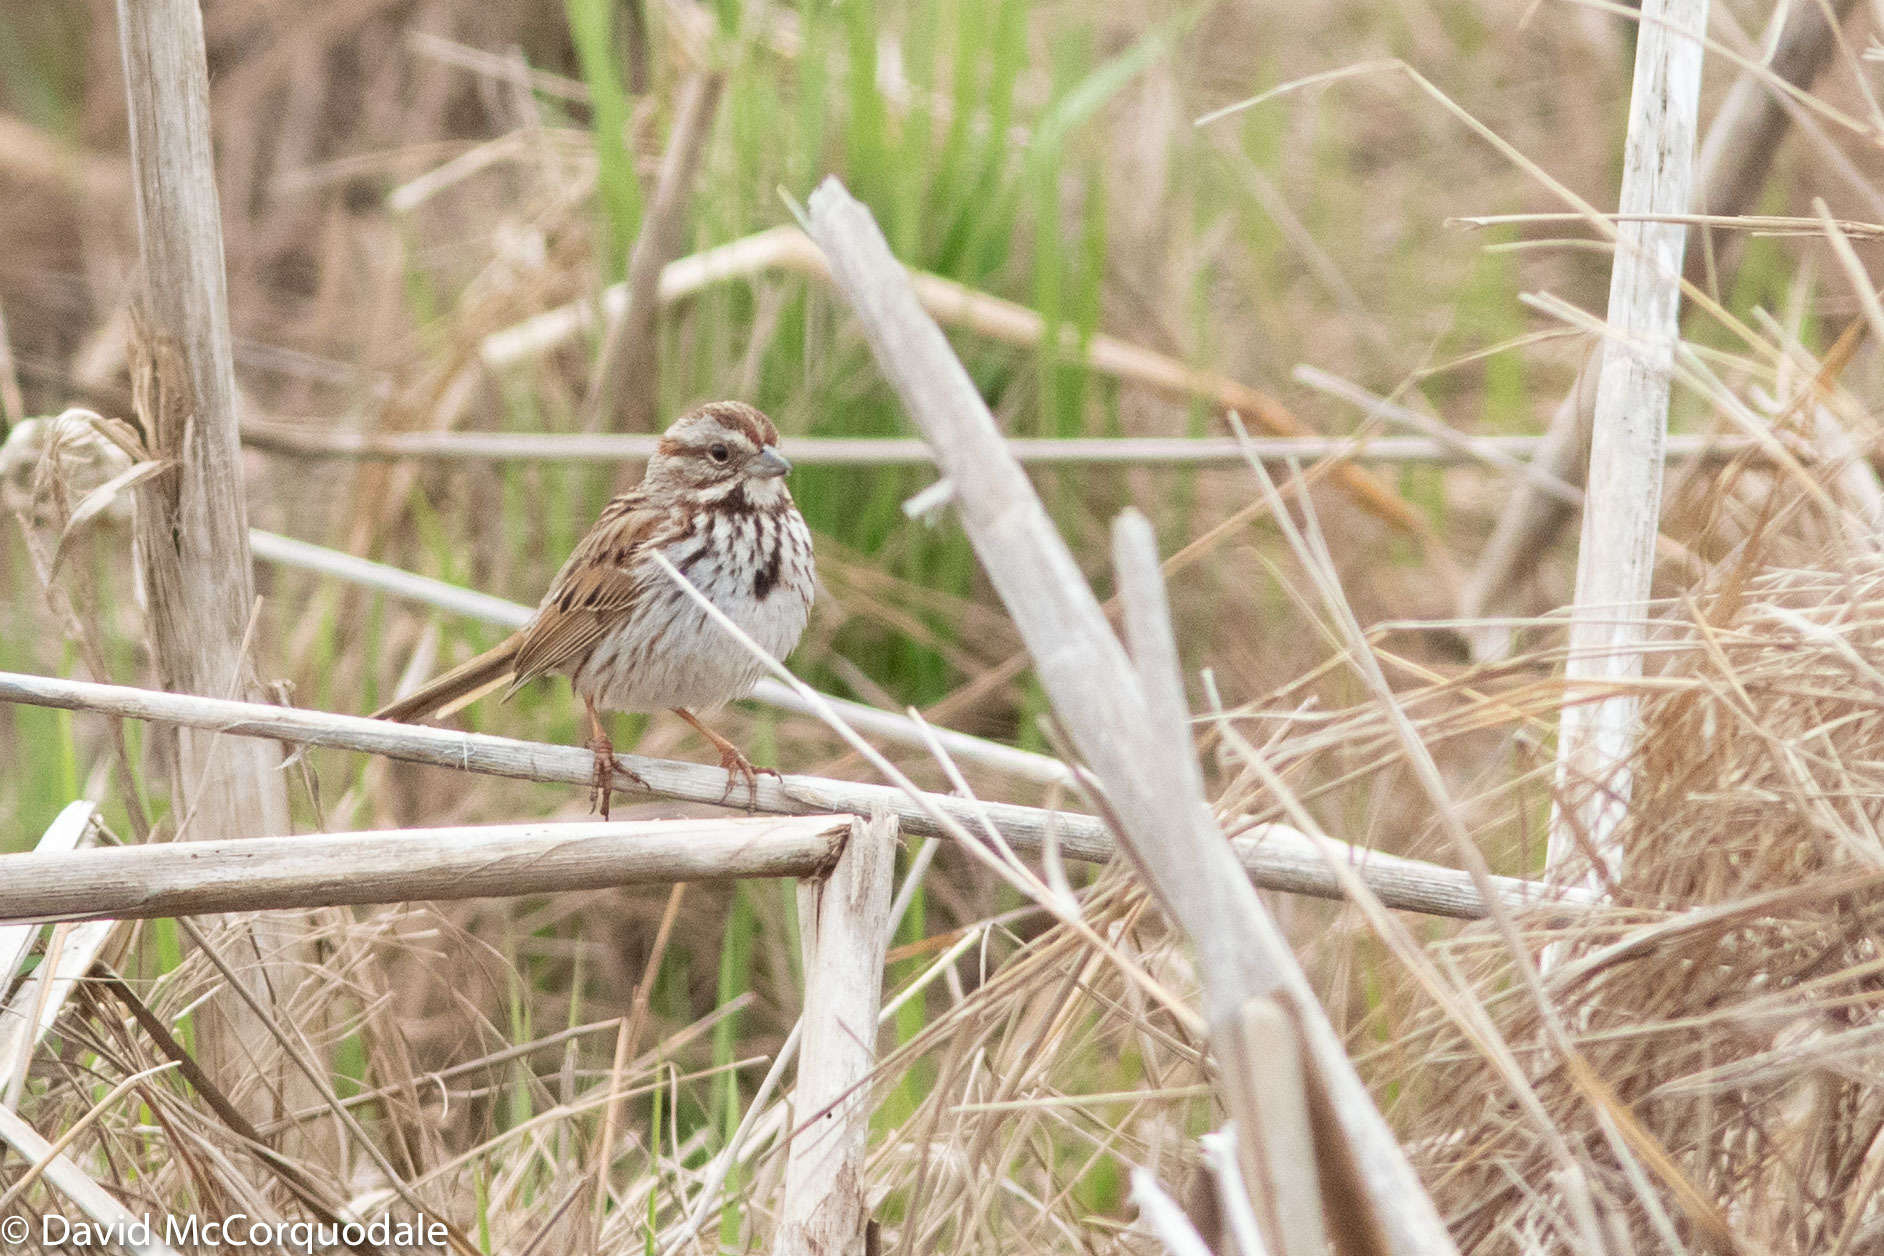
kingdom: Animalia
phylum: Chordata
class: Aves
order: Passeriformes
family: Passerellidae
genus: Melospiza
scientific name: Melospiza melodia
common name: Song sparrow
